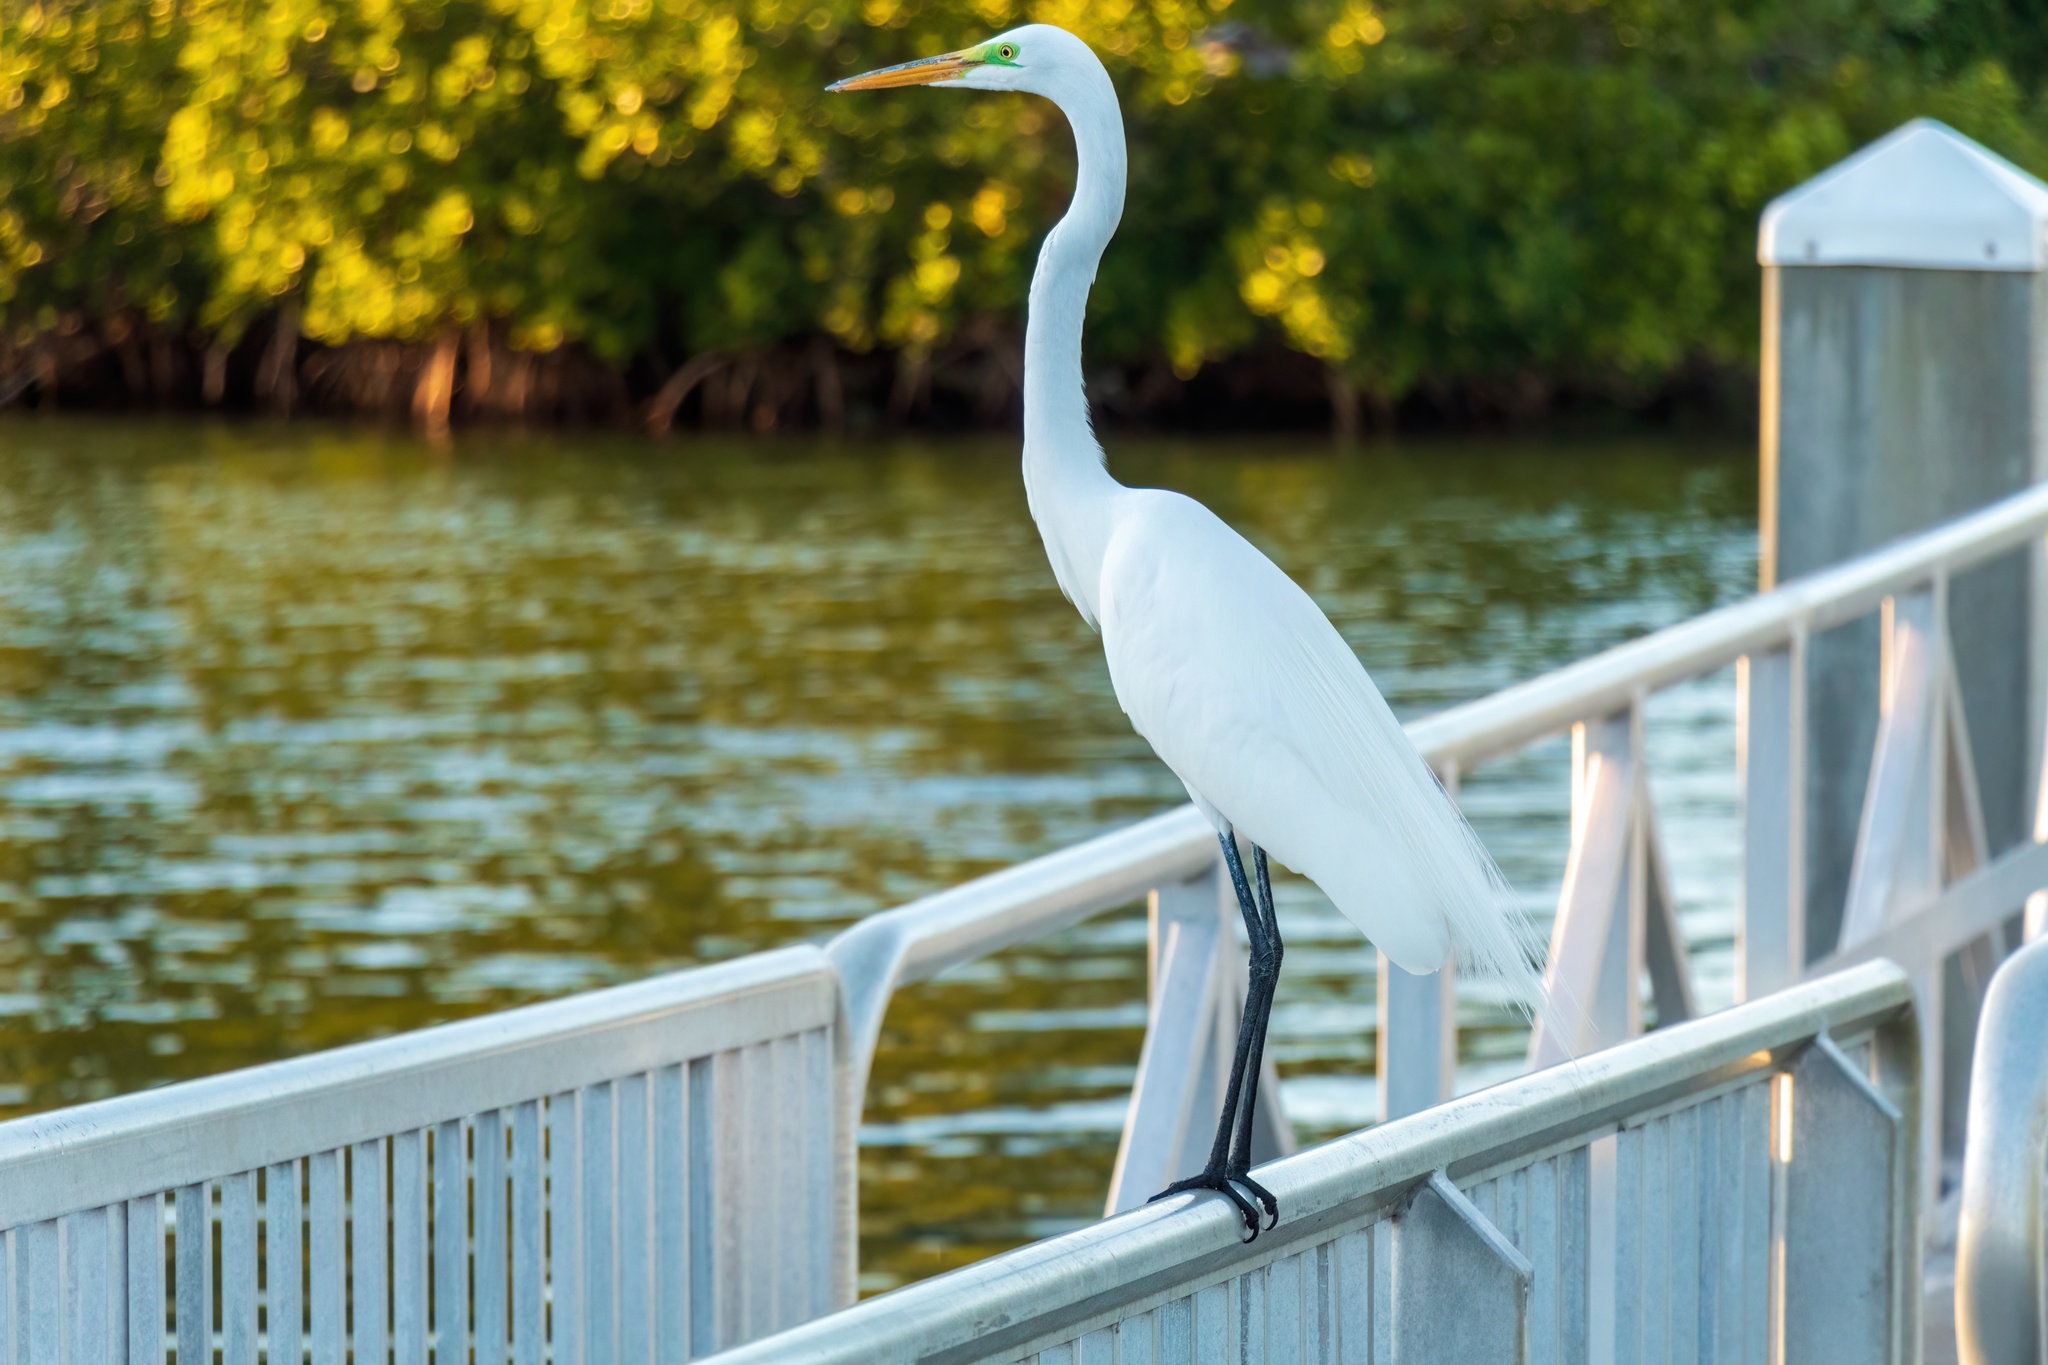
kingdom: Animalia
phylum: Chordata
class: Aves
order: Pelecaniformes
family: Ardeidae
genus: Ardea
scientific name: Ardea alba
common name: Great egret
